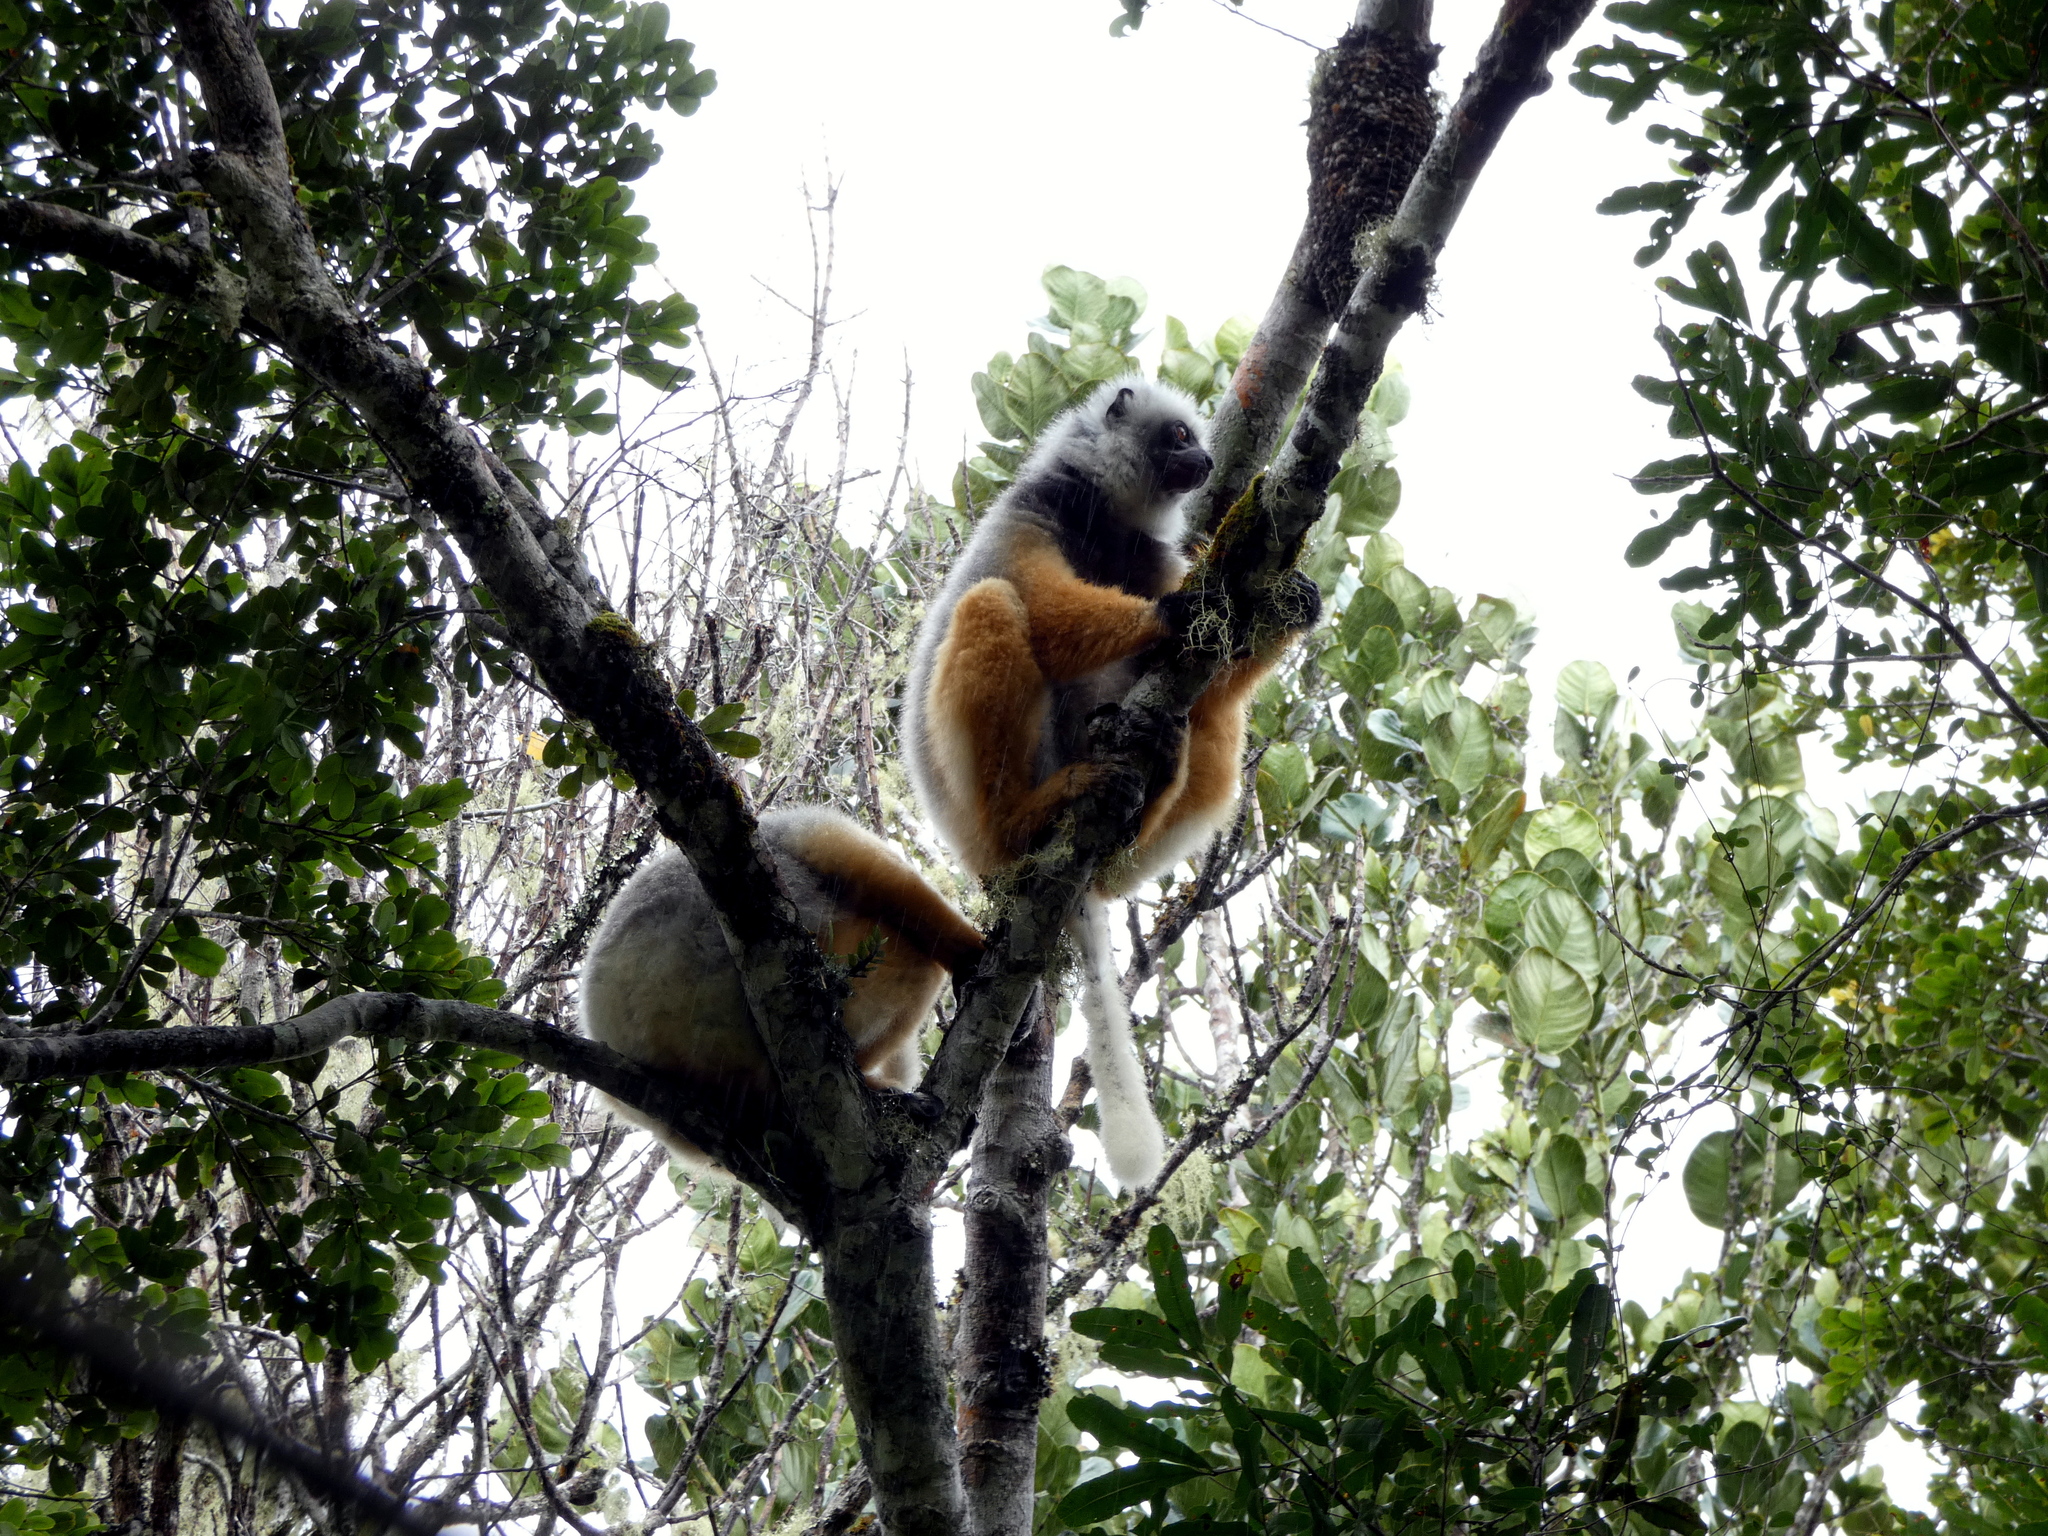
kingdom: Animalia
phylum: Chordata
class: Mammalia
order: Primates
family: Indriidae
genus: Propithecus
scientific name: Propithecus diadema
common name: Diademed sifaka
